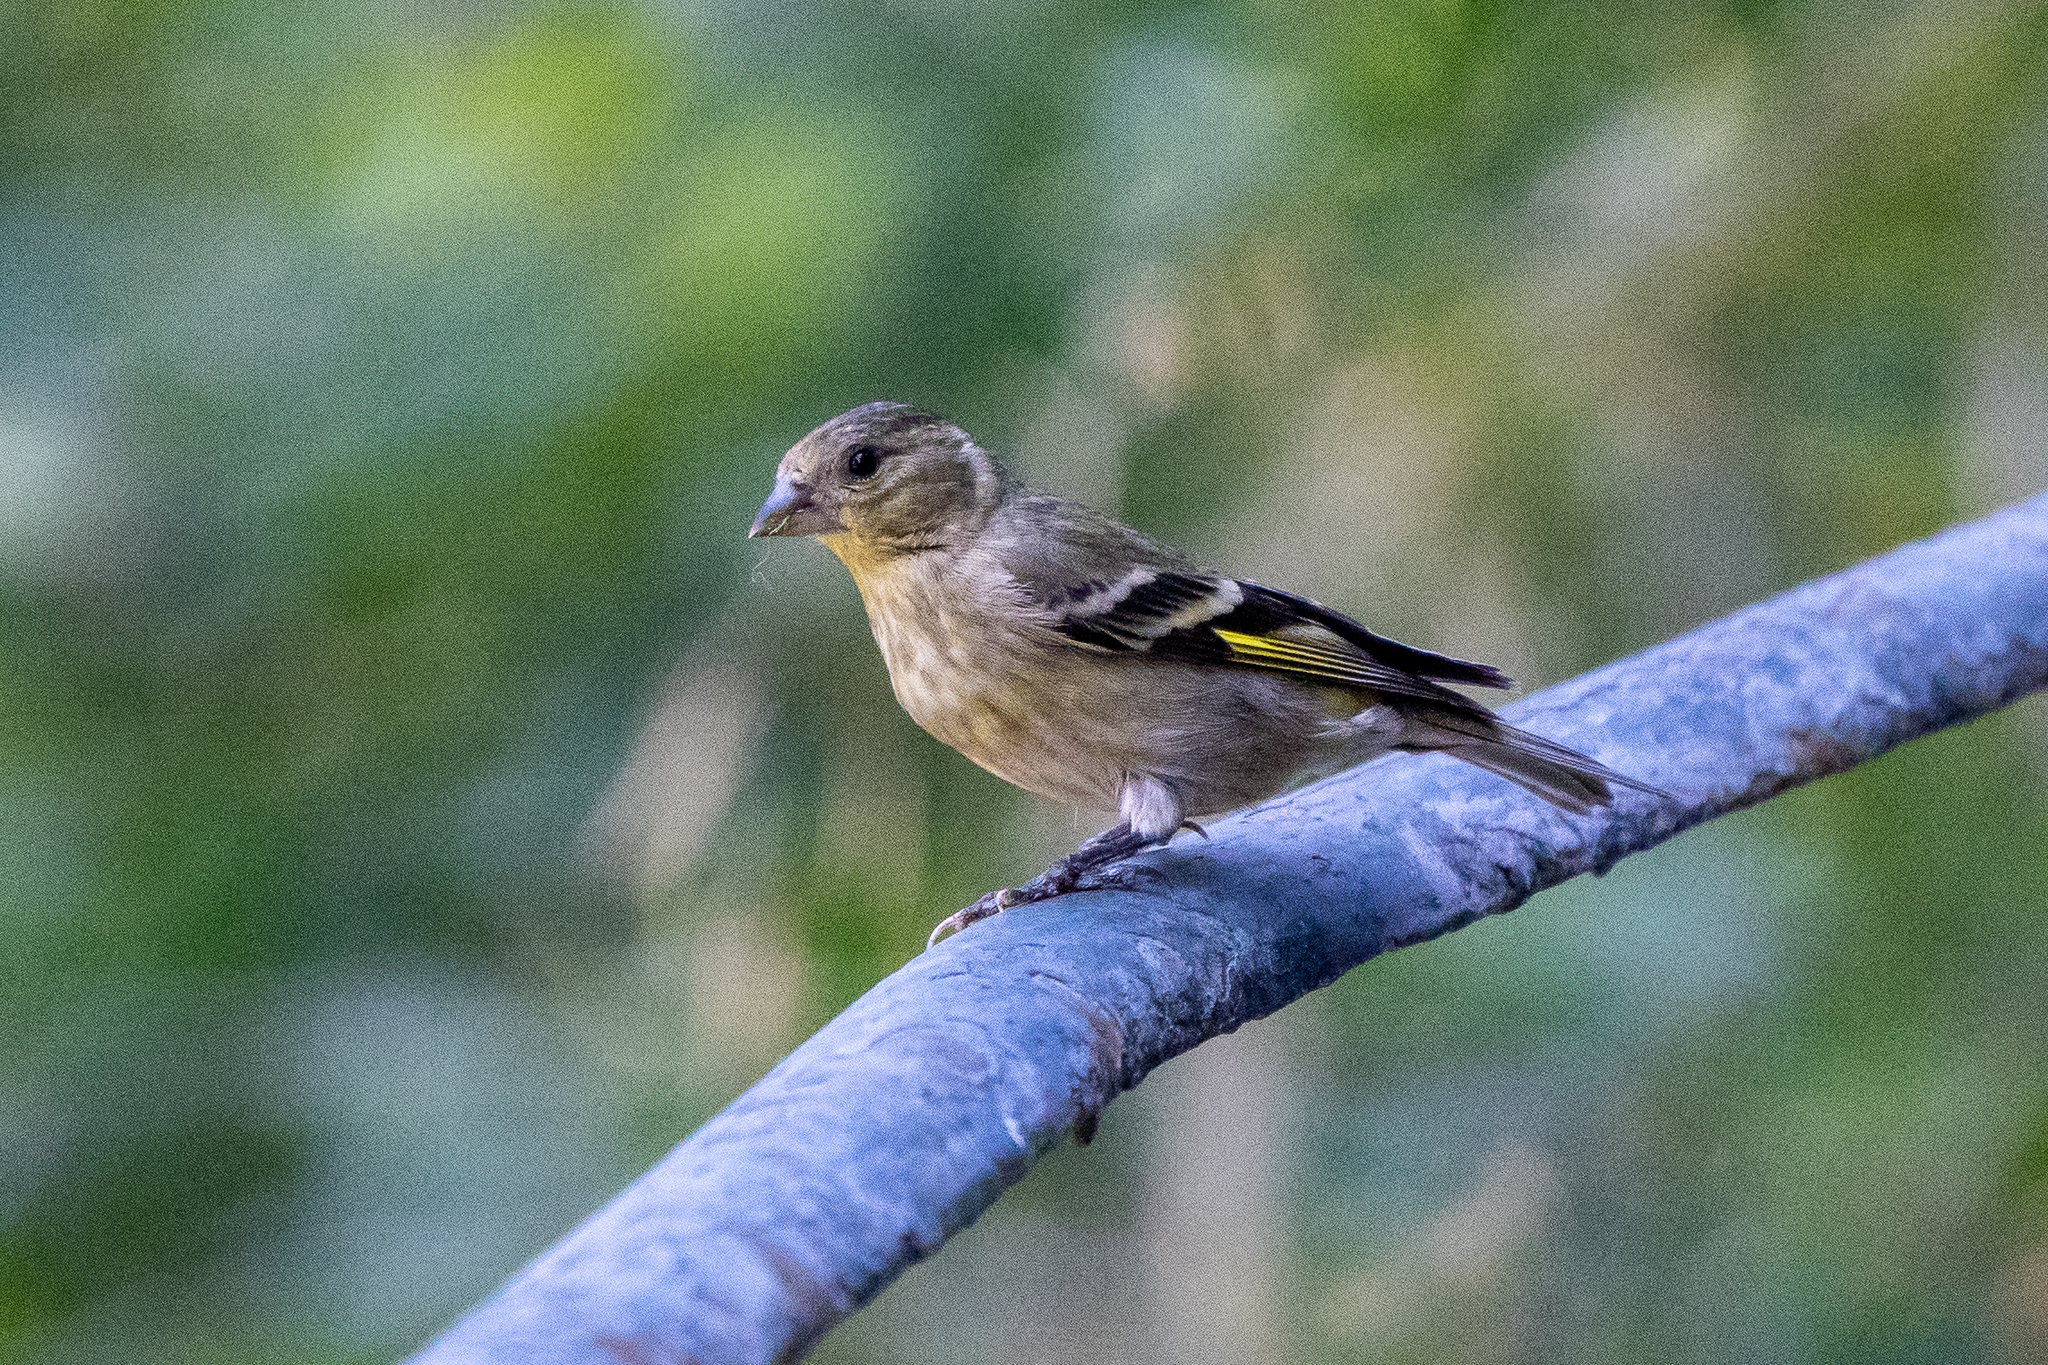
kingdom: Animalia
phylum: Chordata
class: Aves
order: Passeriformes
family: Fringillidae
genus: Spinus
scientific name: Spinus barbatus
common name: Black-chinned siskin
